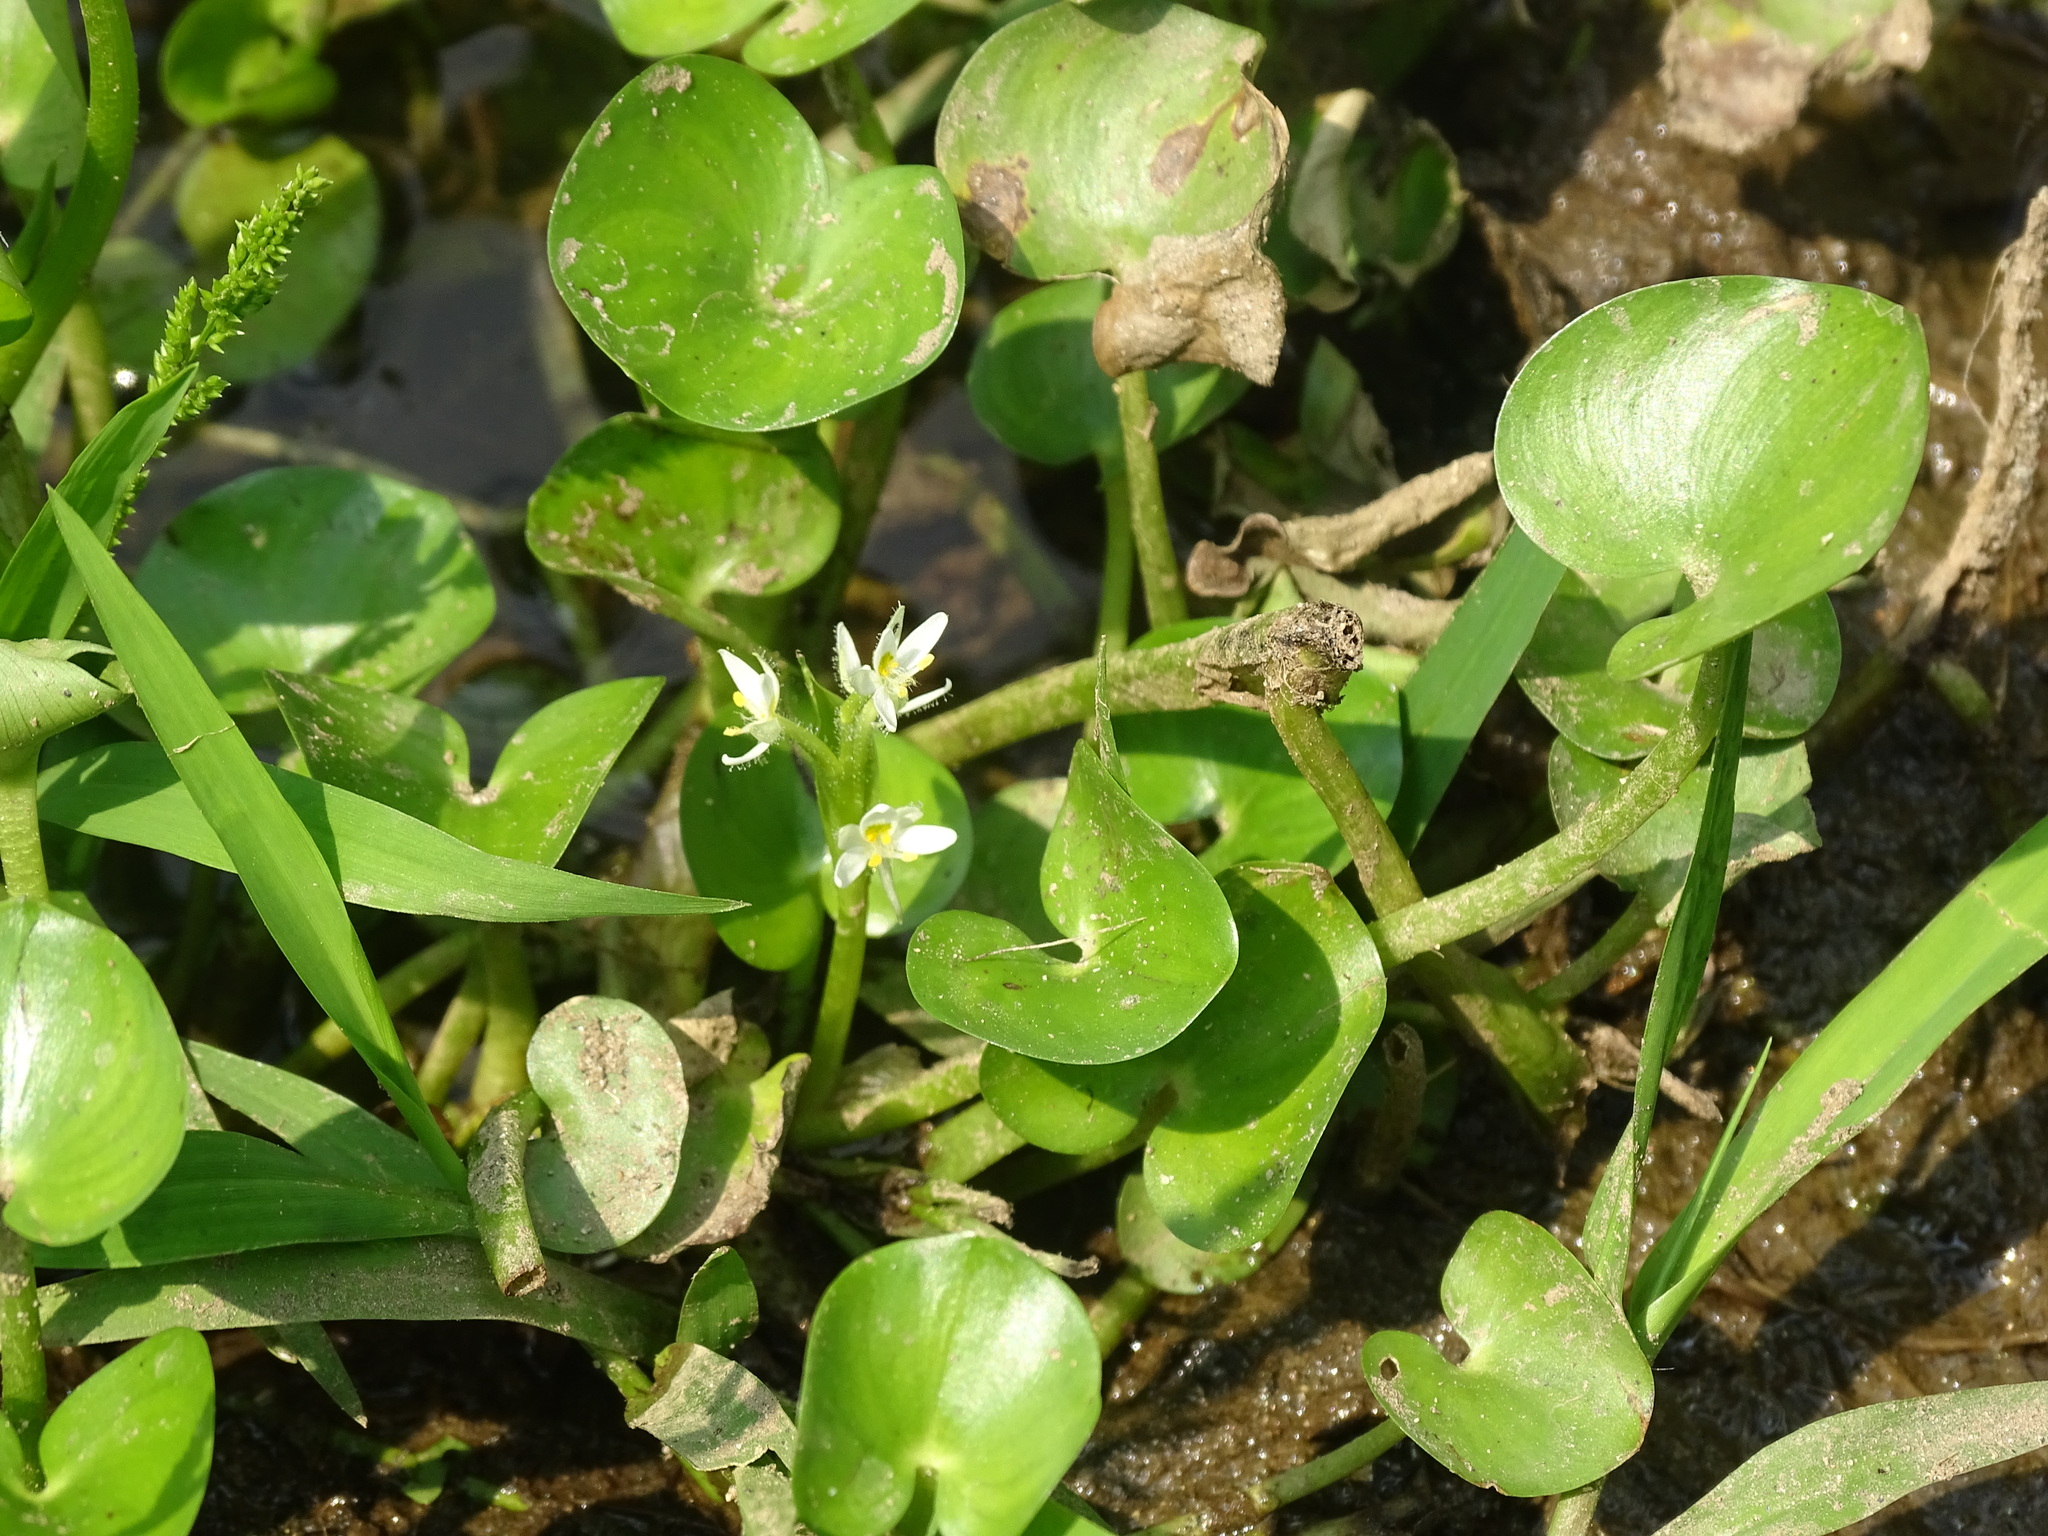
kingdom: Plantae
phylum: Tracheophyta
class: Liliopsida
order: Commelinales
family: Pontederiaceae
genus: Heteranthera
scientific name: Heteranthera reniformis
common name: Kidneyleaf mudplantain
